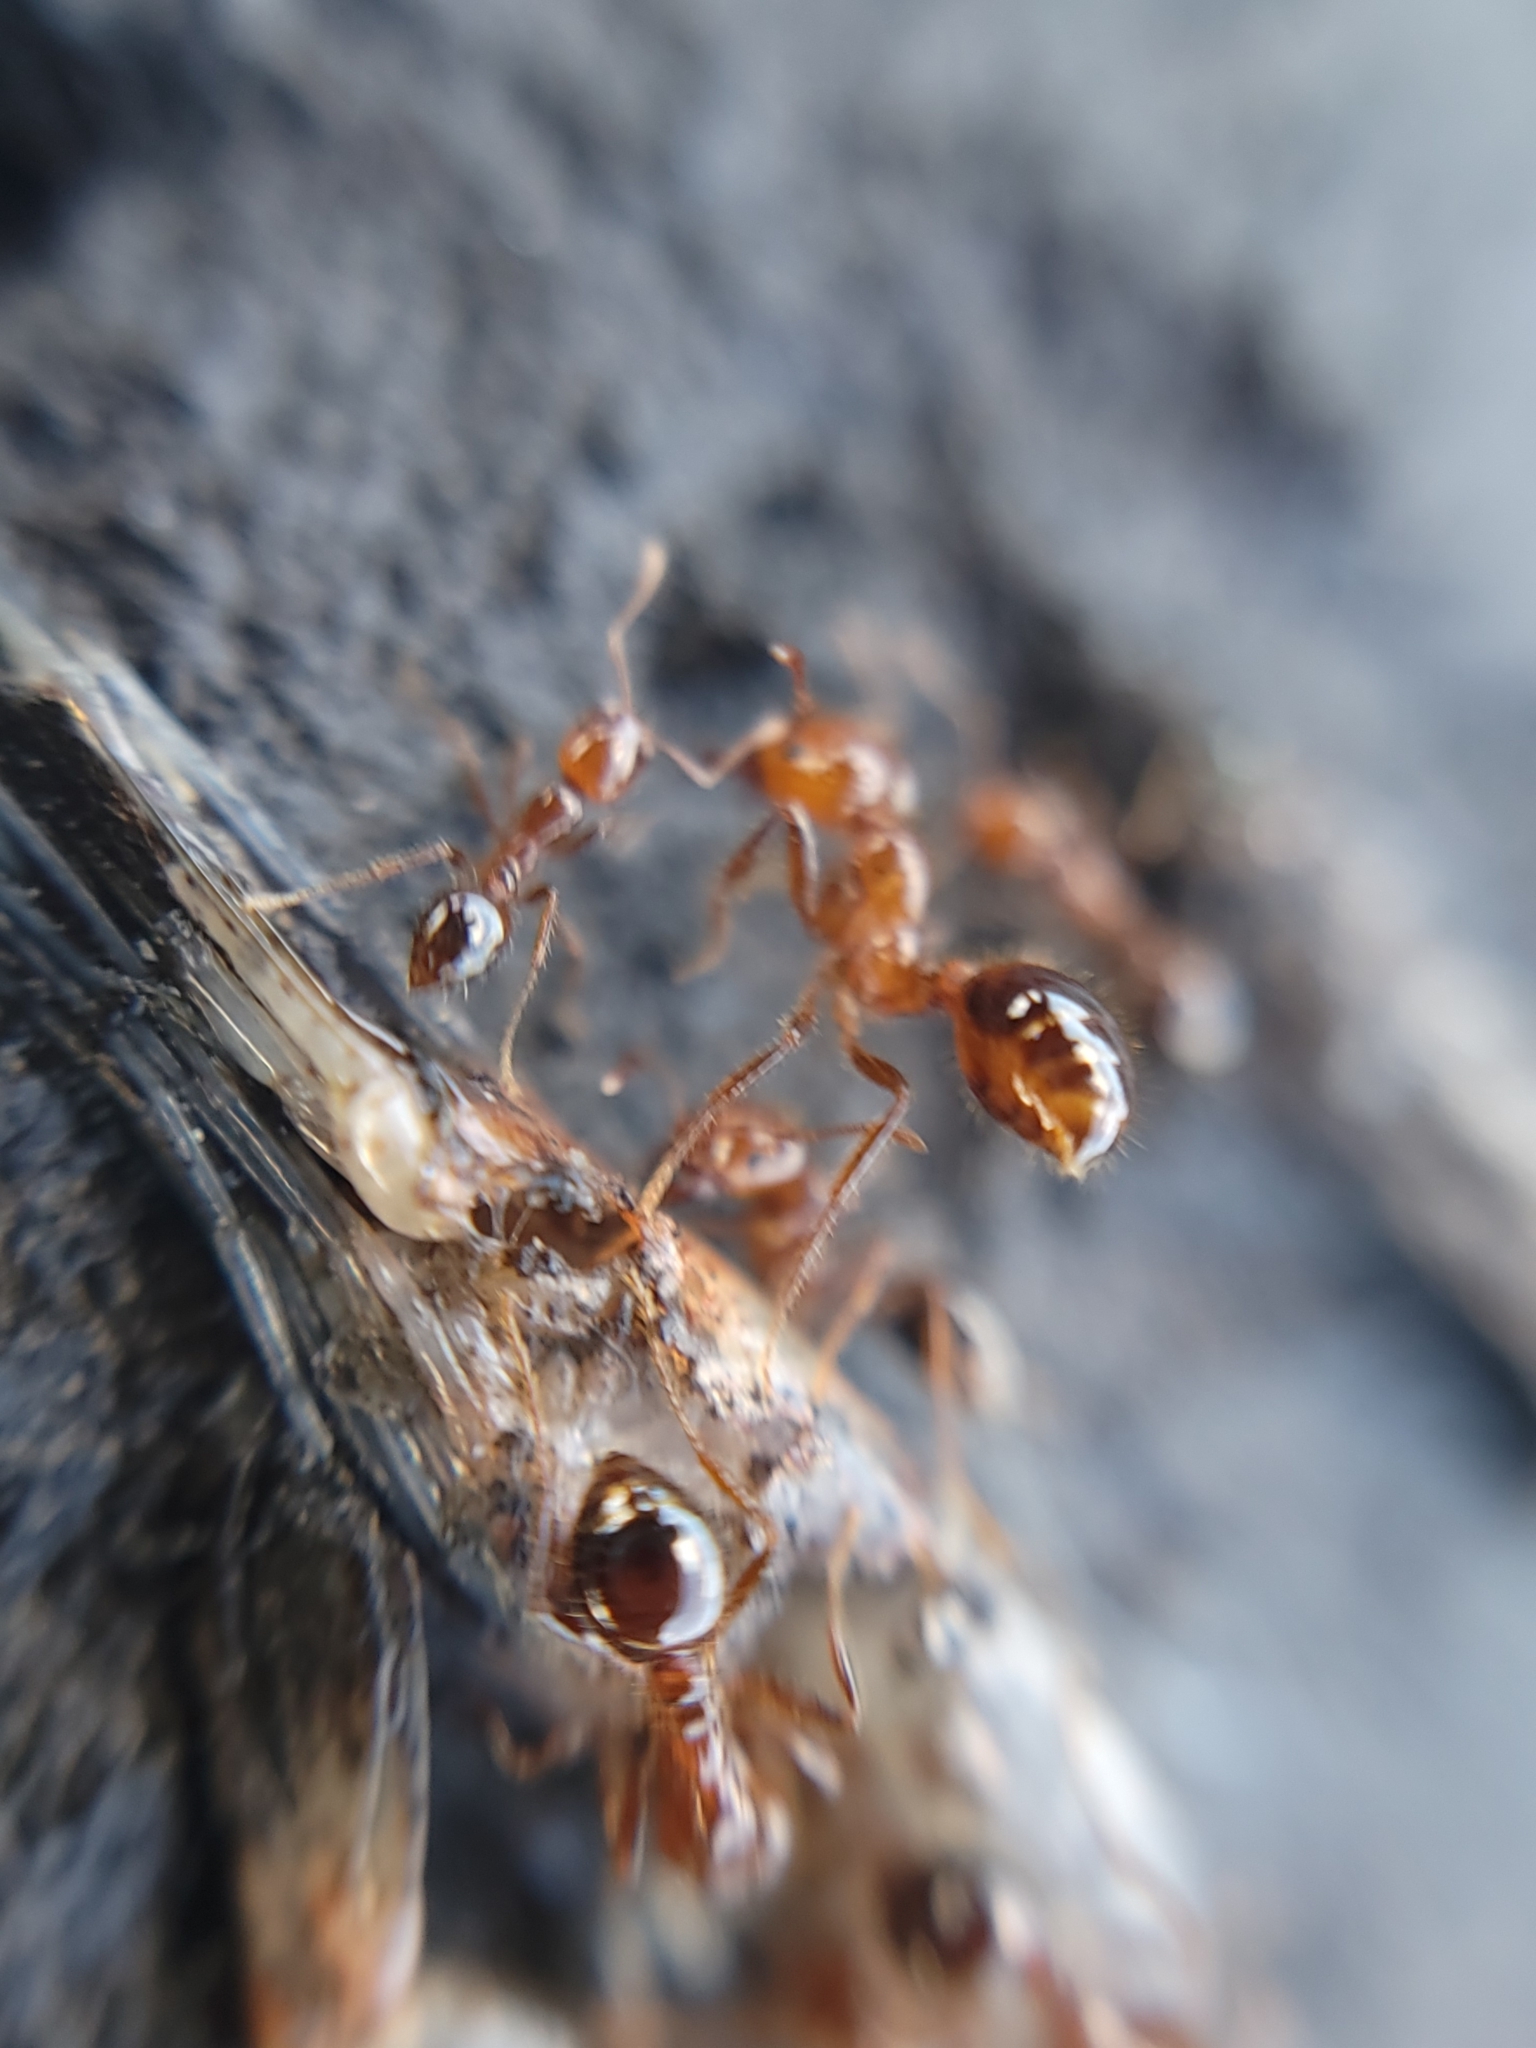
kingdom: Animalia
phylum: Arthropoda
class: Insecta
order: Hymenoptera
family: Formicidae
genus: Solenopsis
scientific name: Solenopsis invicta
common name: Red imported fire ant
